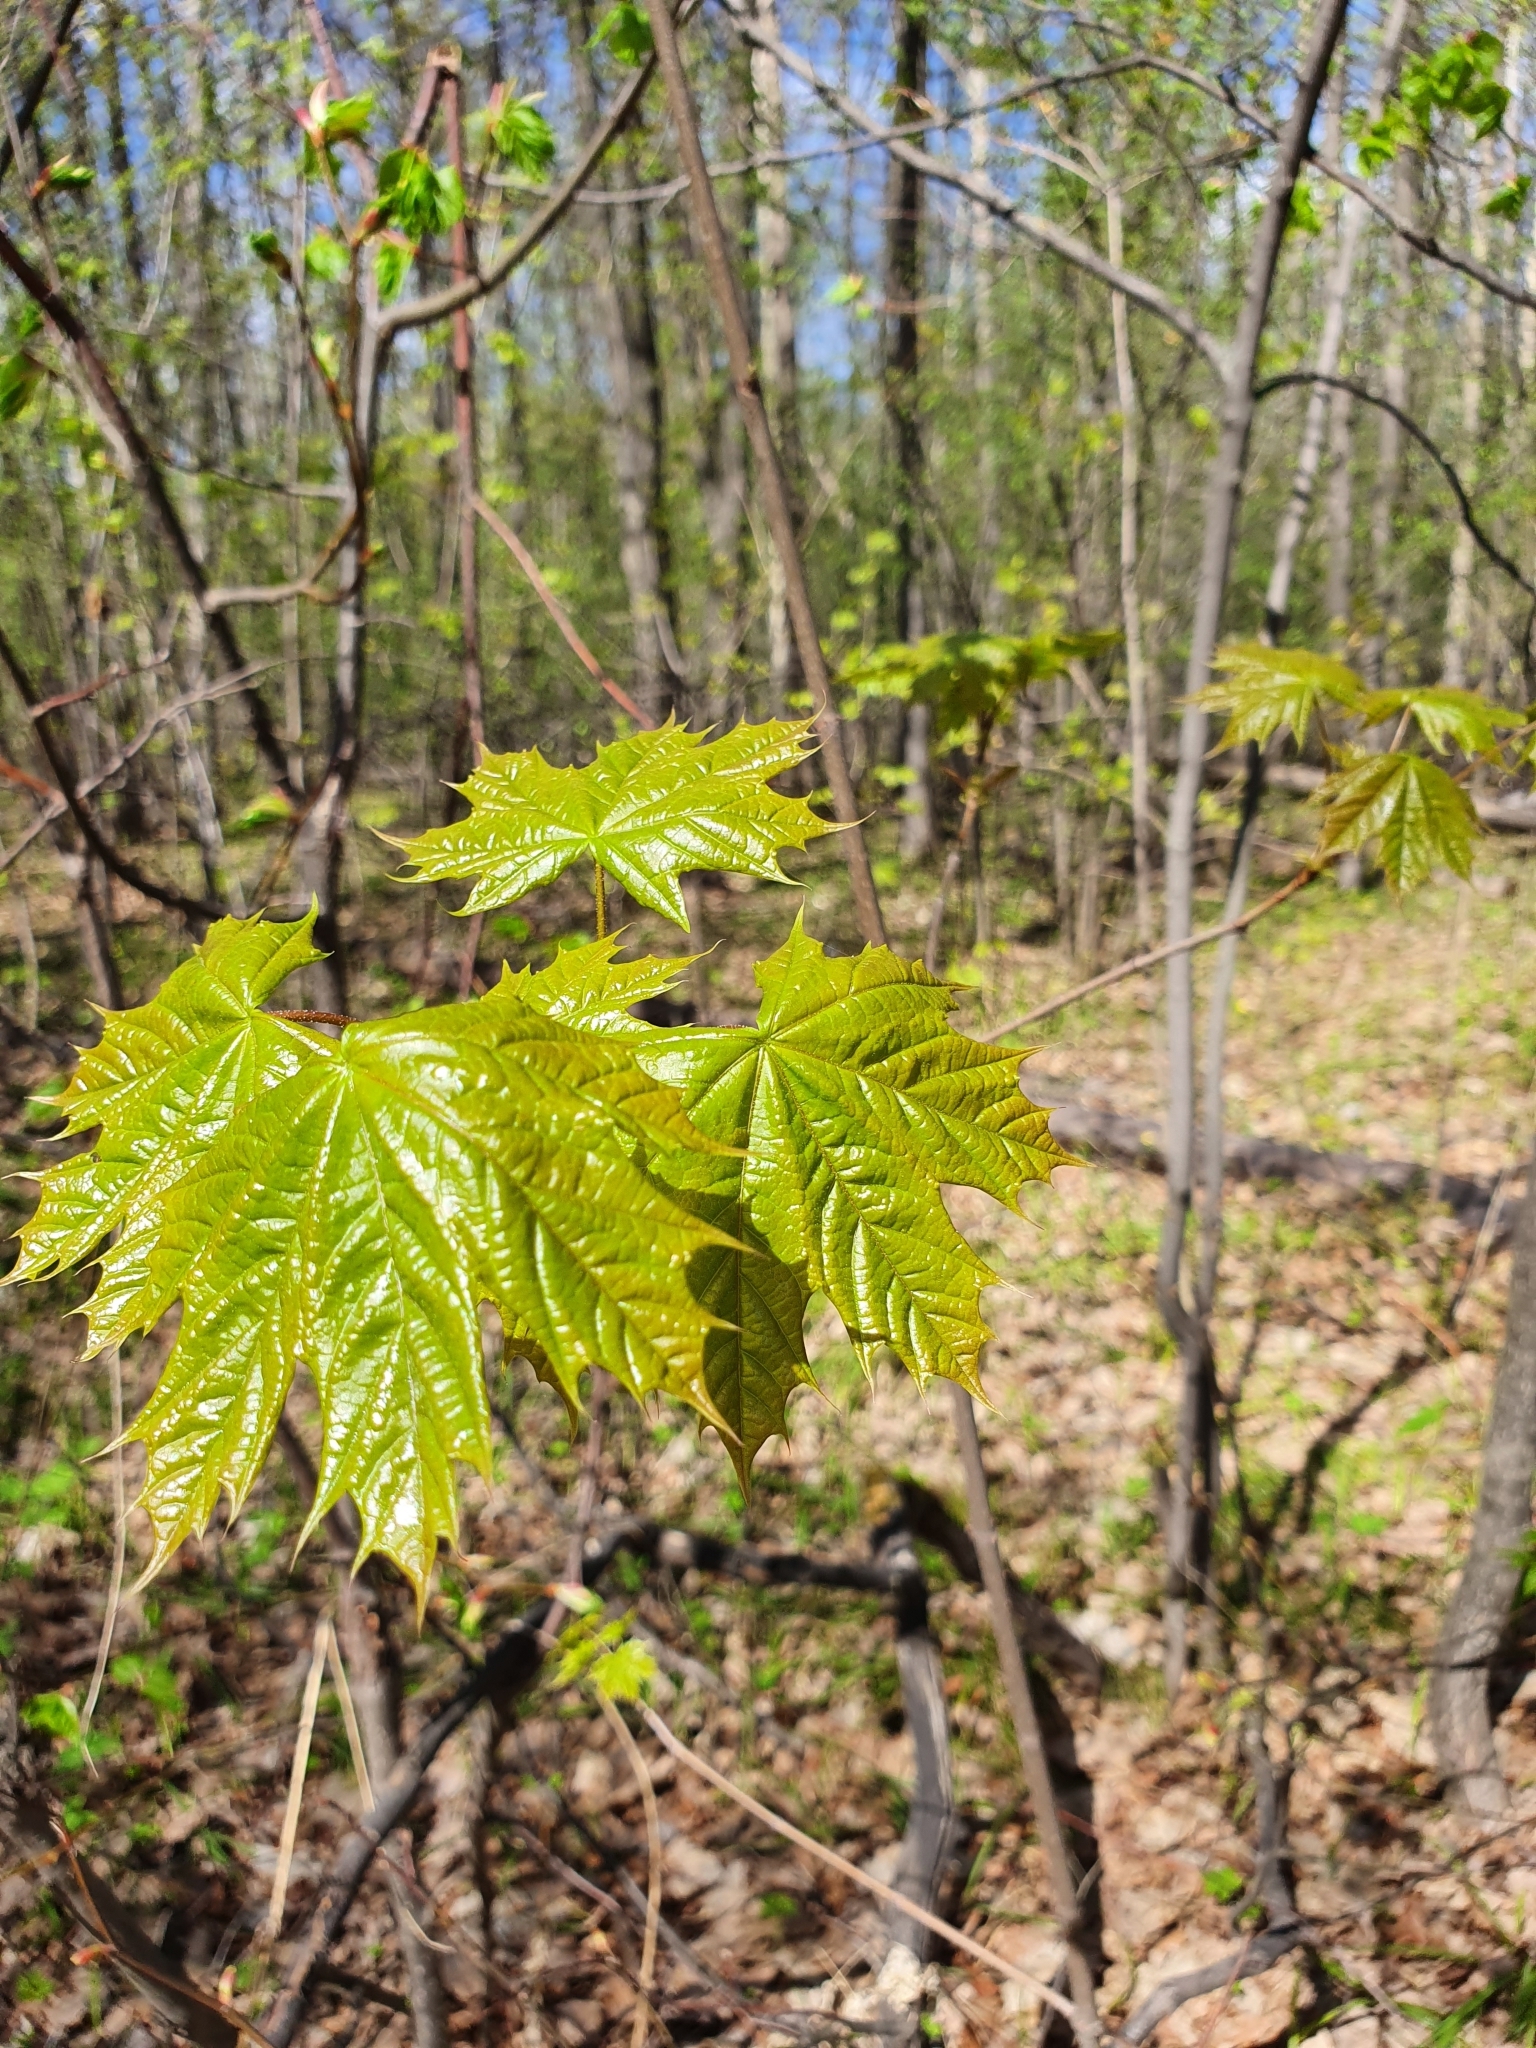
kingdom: Plantae
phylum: Tracheophyta
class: Magnoliopsida
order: Sapindales
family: Sapindaceae
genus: Acer
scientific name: Acer platanoides
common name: Norway maple
